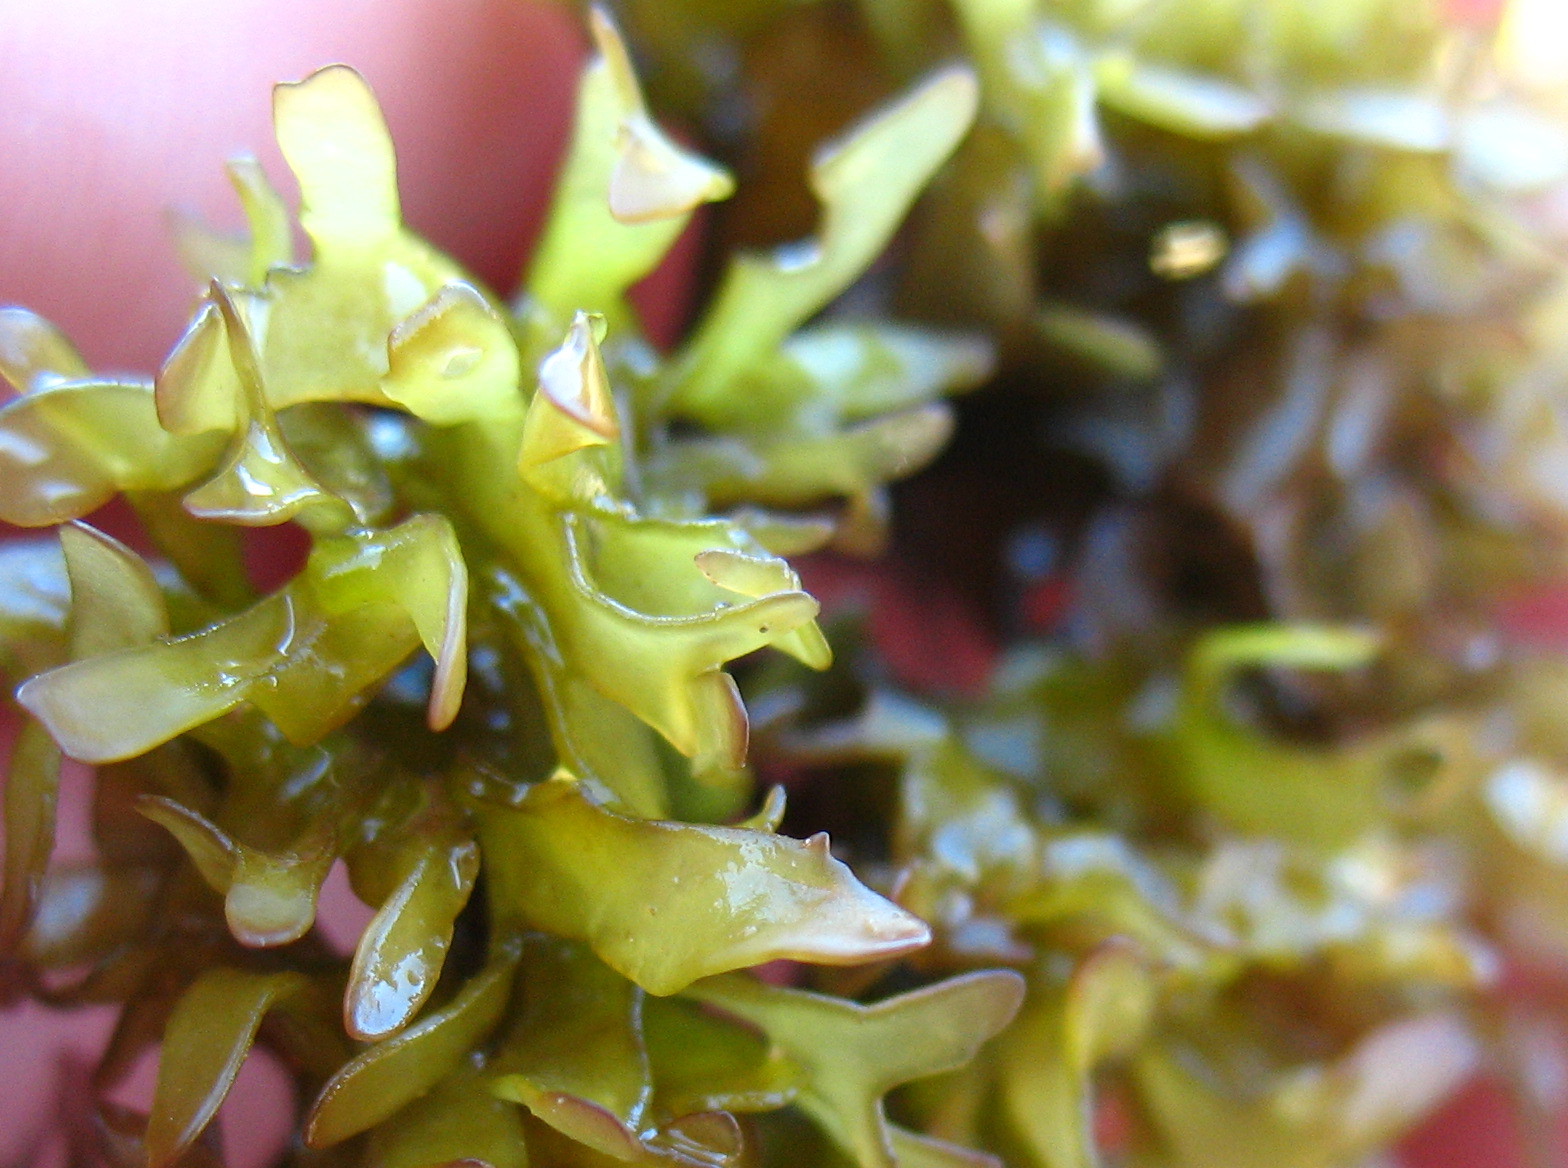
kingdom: Plantae
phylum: Rhodophyta
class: Florideophyceae
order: Gigartinales
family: Gigartinaceae
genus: Chondrus
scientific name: Chondrus crispus
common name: Carrageen
